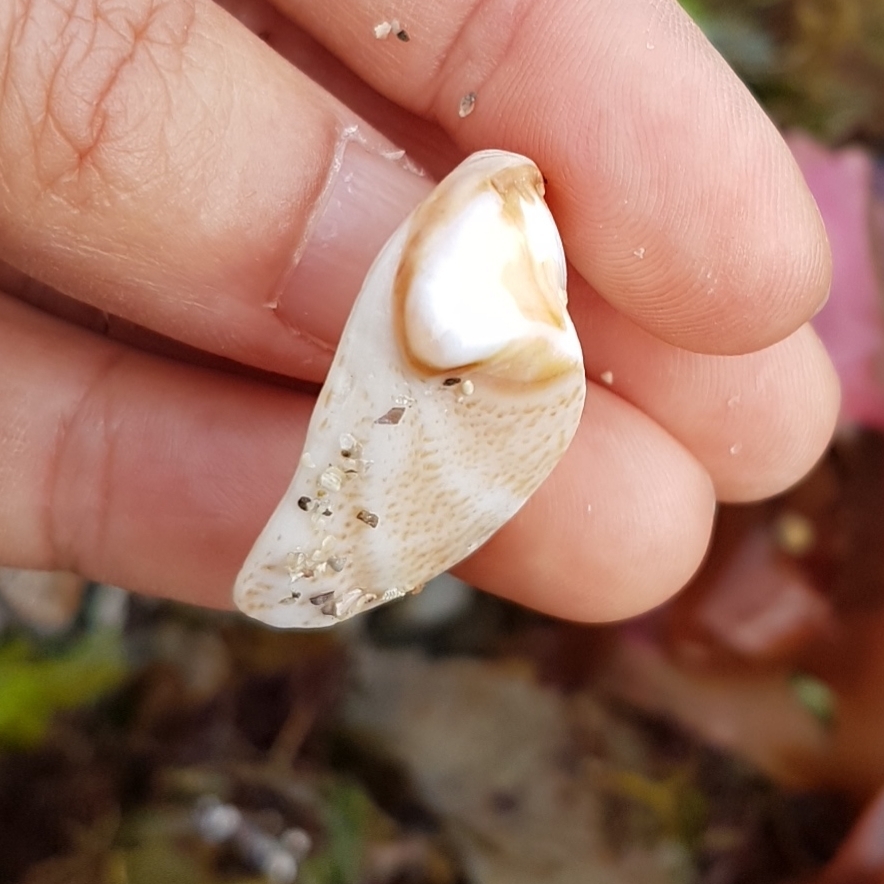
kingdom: Animalia
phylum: Mollusca
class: Gastropoda
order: Littorinimorpha
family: Calyptraeidae
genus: Crepidula
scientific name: Crepidula fornicata
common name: Slipper limpet
